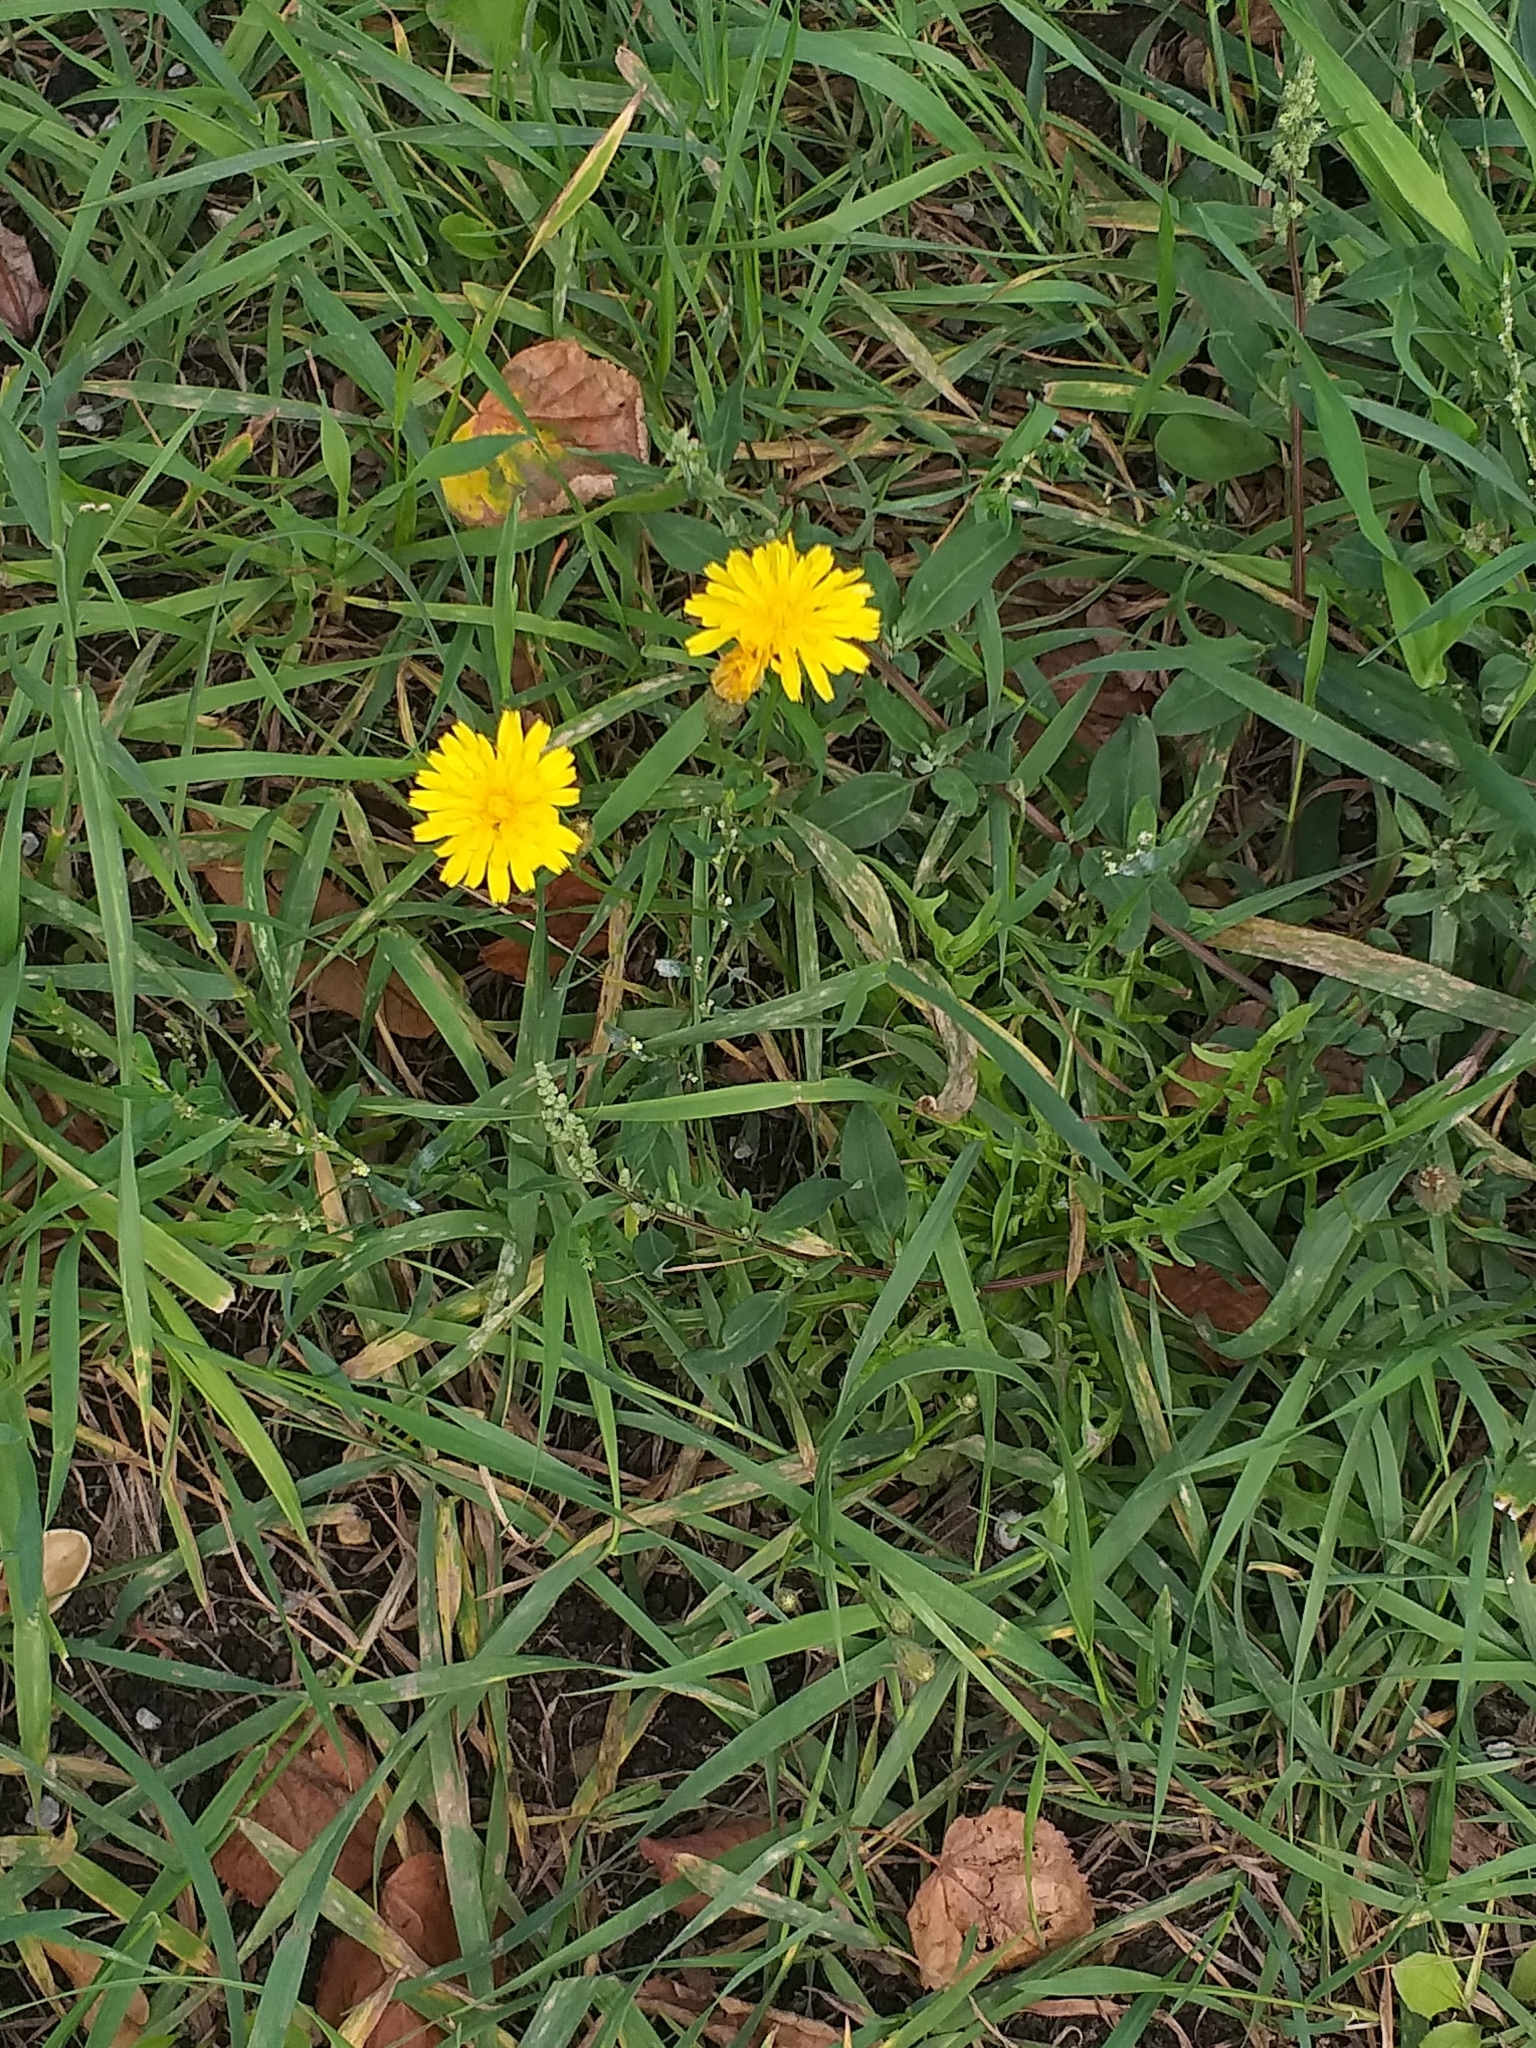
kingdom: Plantae
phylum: Tracheophyta
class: Magnoliopsida
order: Asterales
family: Asteraceae
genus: Scorzoneroides
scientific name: Scorzoneroides autumnalis
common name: Autumn hawkbit
